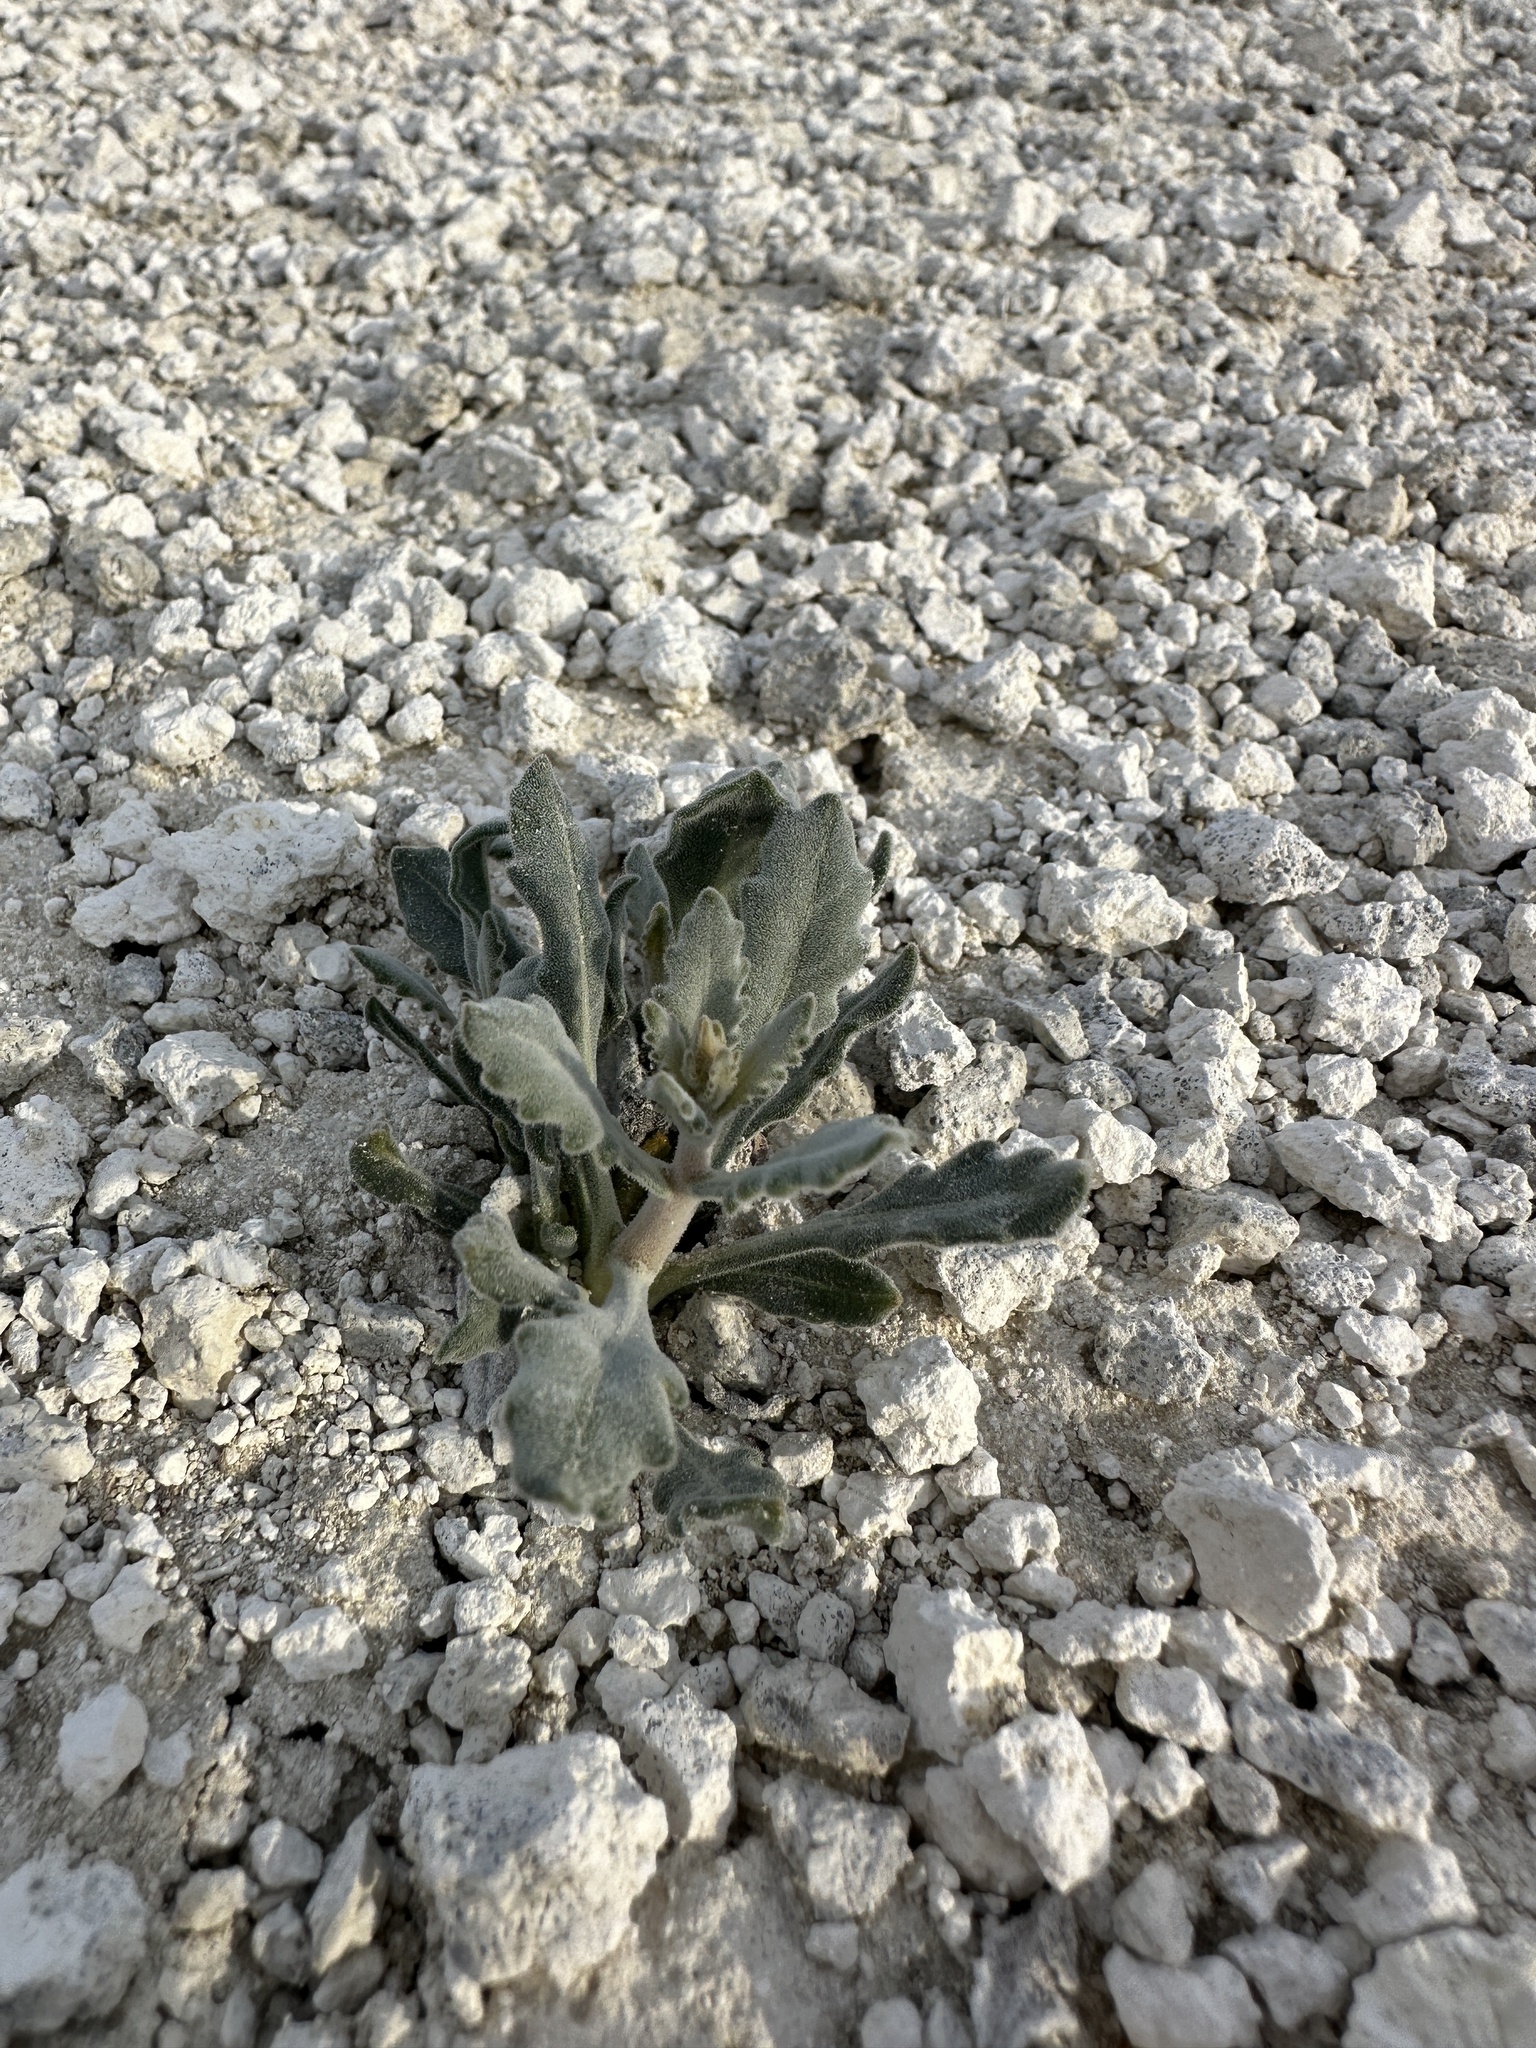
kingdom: Plantae
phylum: Tracheophyta
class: Magnoliopsida
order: Cornales
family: Loasaceae
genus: Mentzelia
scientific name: Mentzelia tiehmii
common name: Tiehm's blazing star
